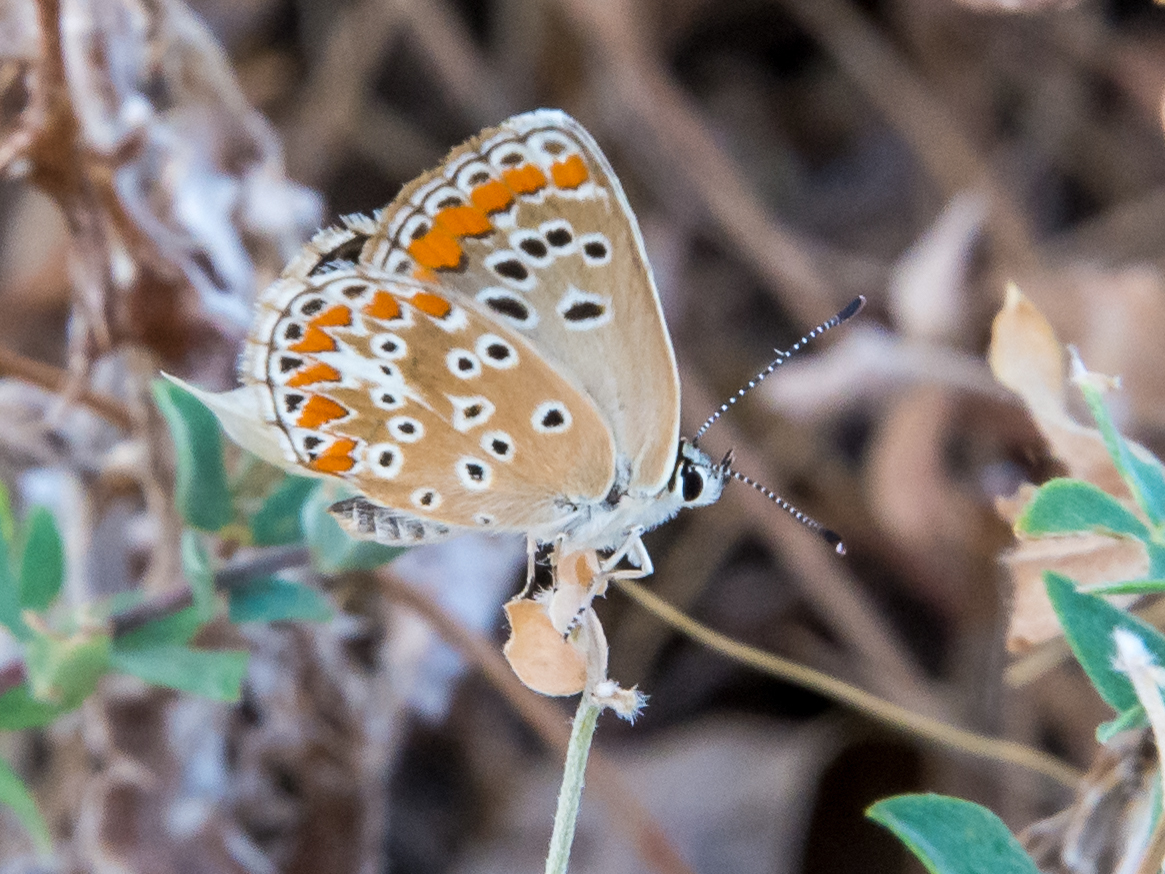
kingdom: Animalia
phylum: Arthropoda
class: Insecta
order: Lepidoptera
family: Lycaenidae
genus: Aricia
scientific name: Aricia agestis
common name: Brown argus
